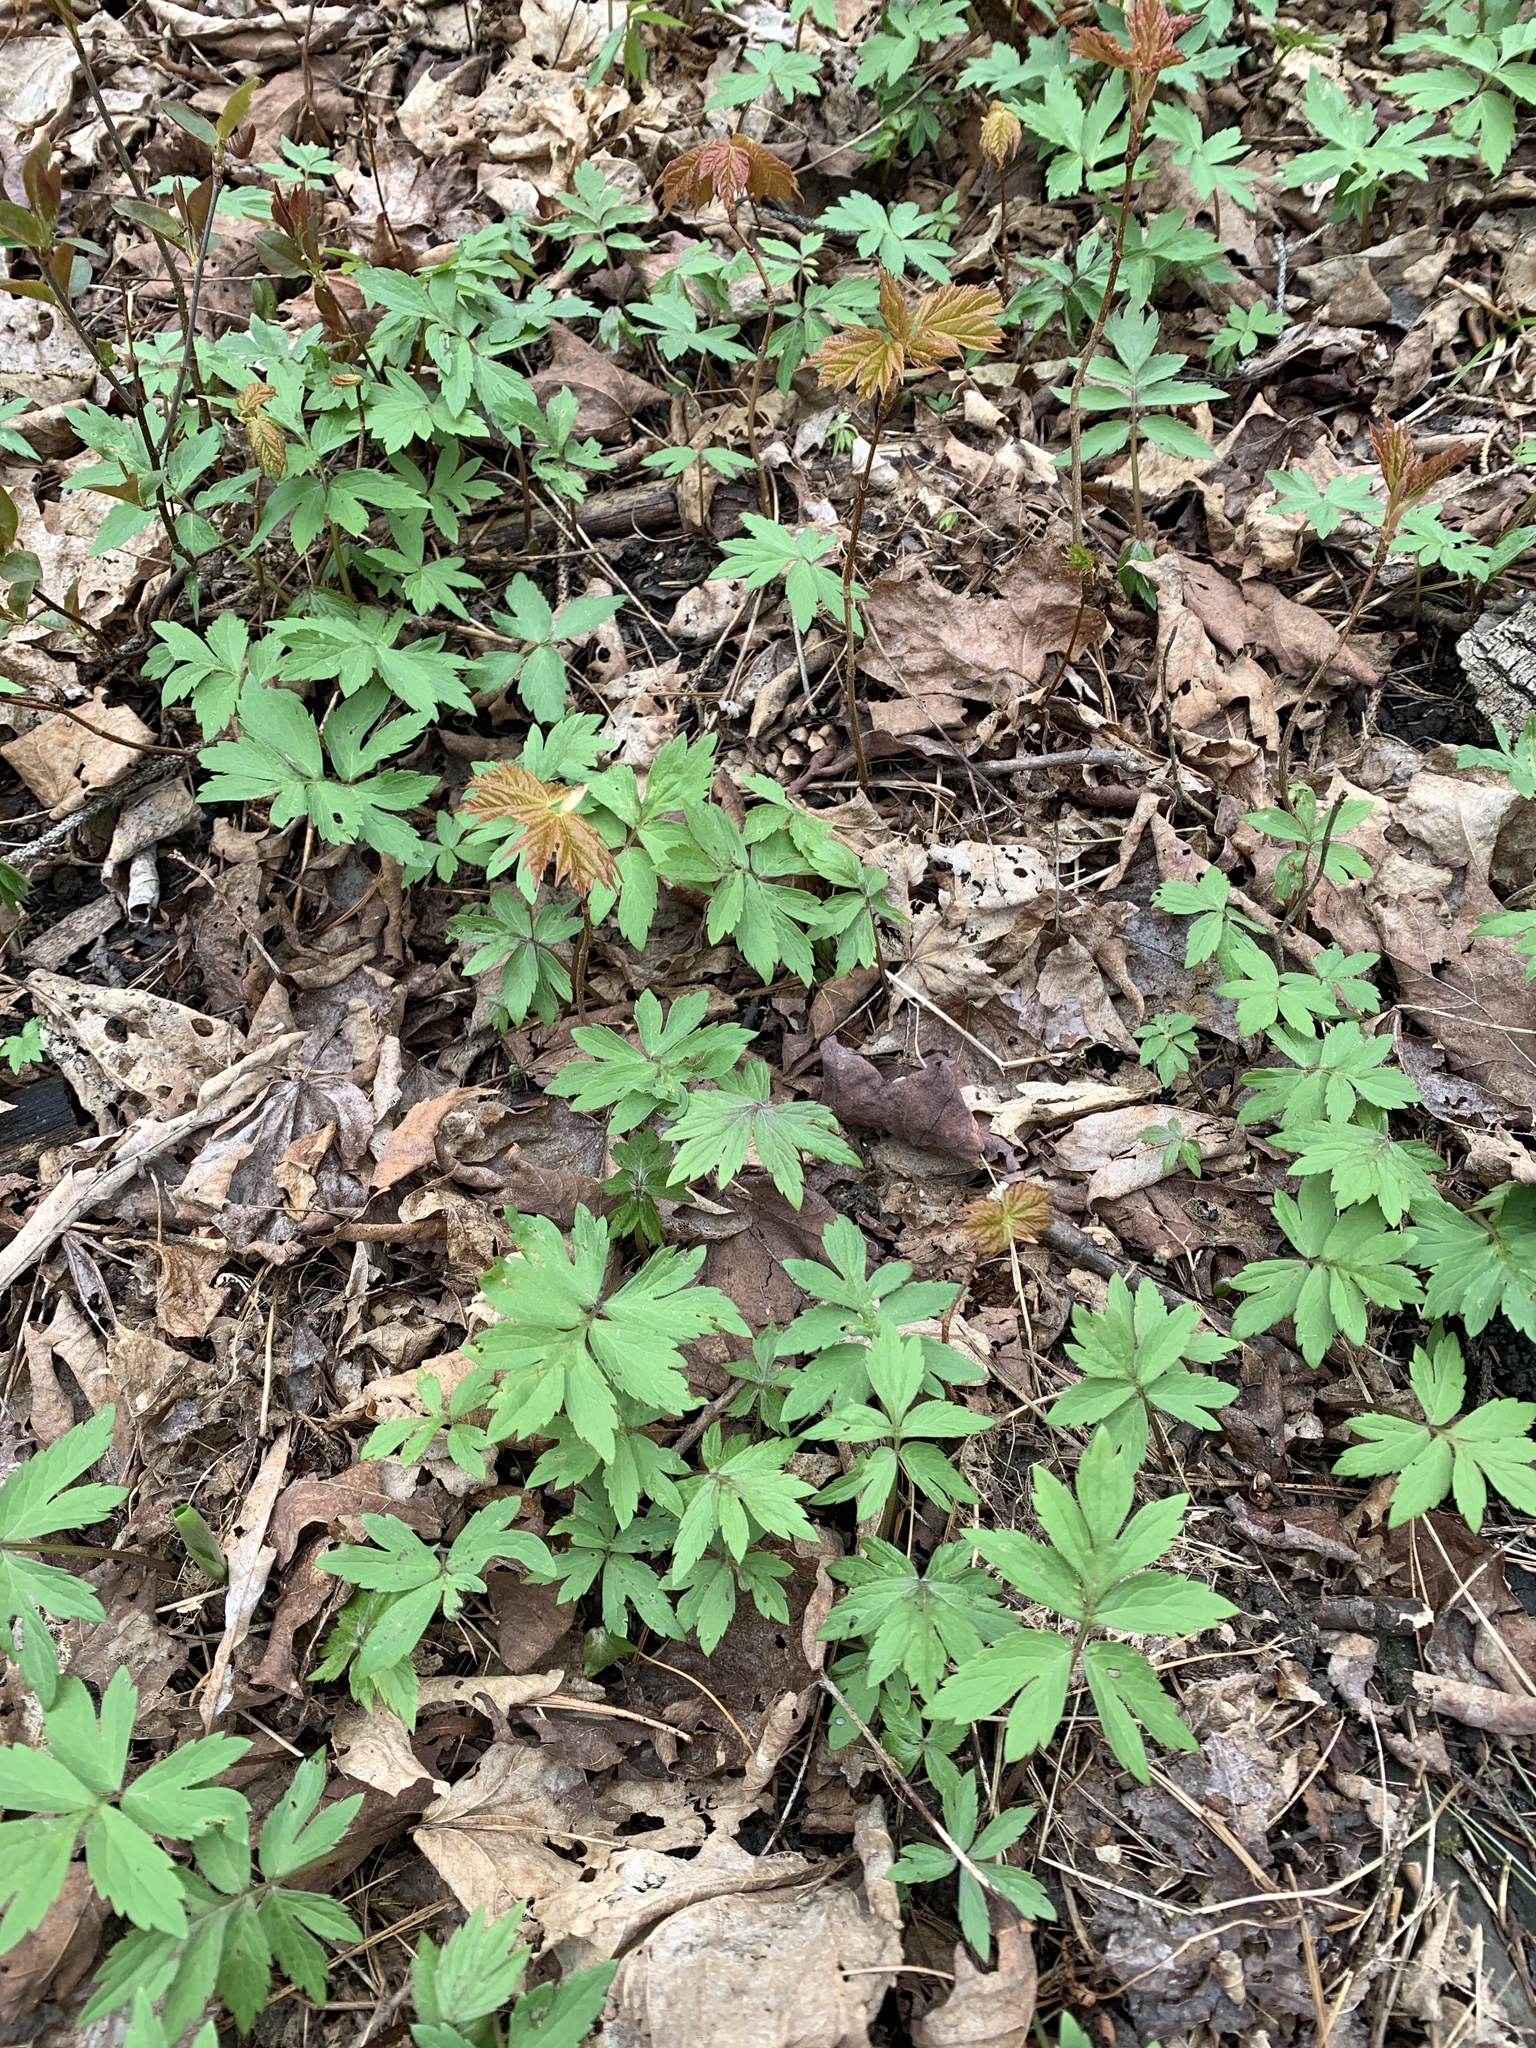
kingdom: Plantae
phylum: Tracheophyta
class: Magnoliopsida
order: Boraginales
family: Hydrophyllaceae
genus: Hydrophyllum
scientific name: Hydrophyllum virginianum
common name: Virginia waterleaf
